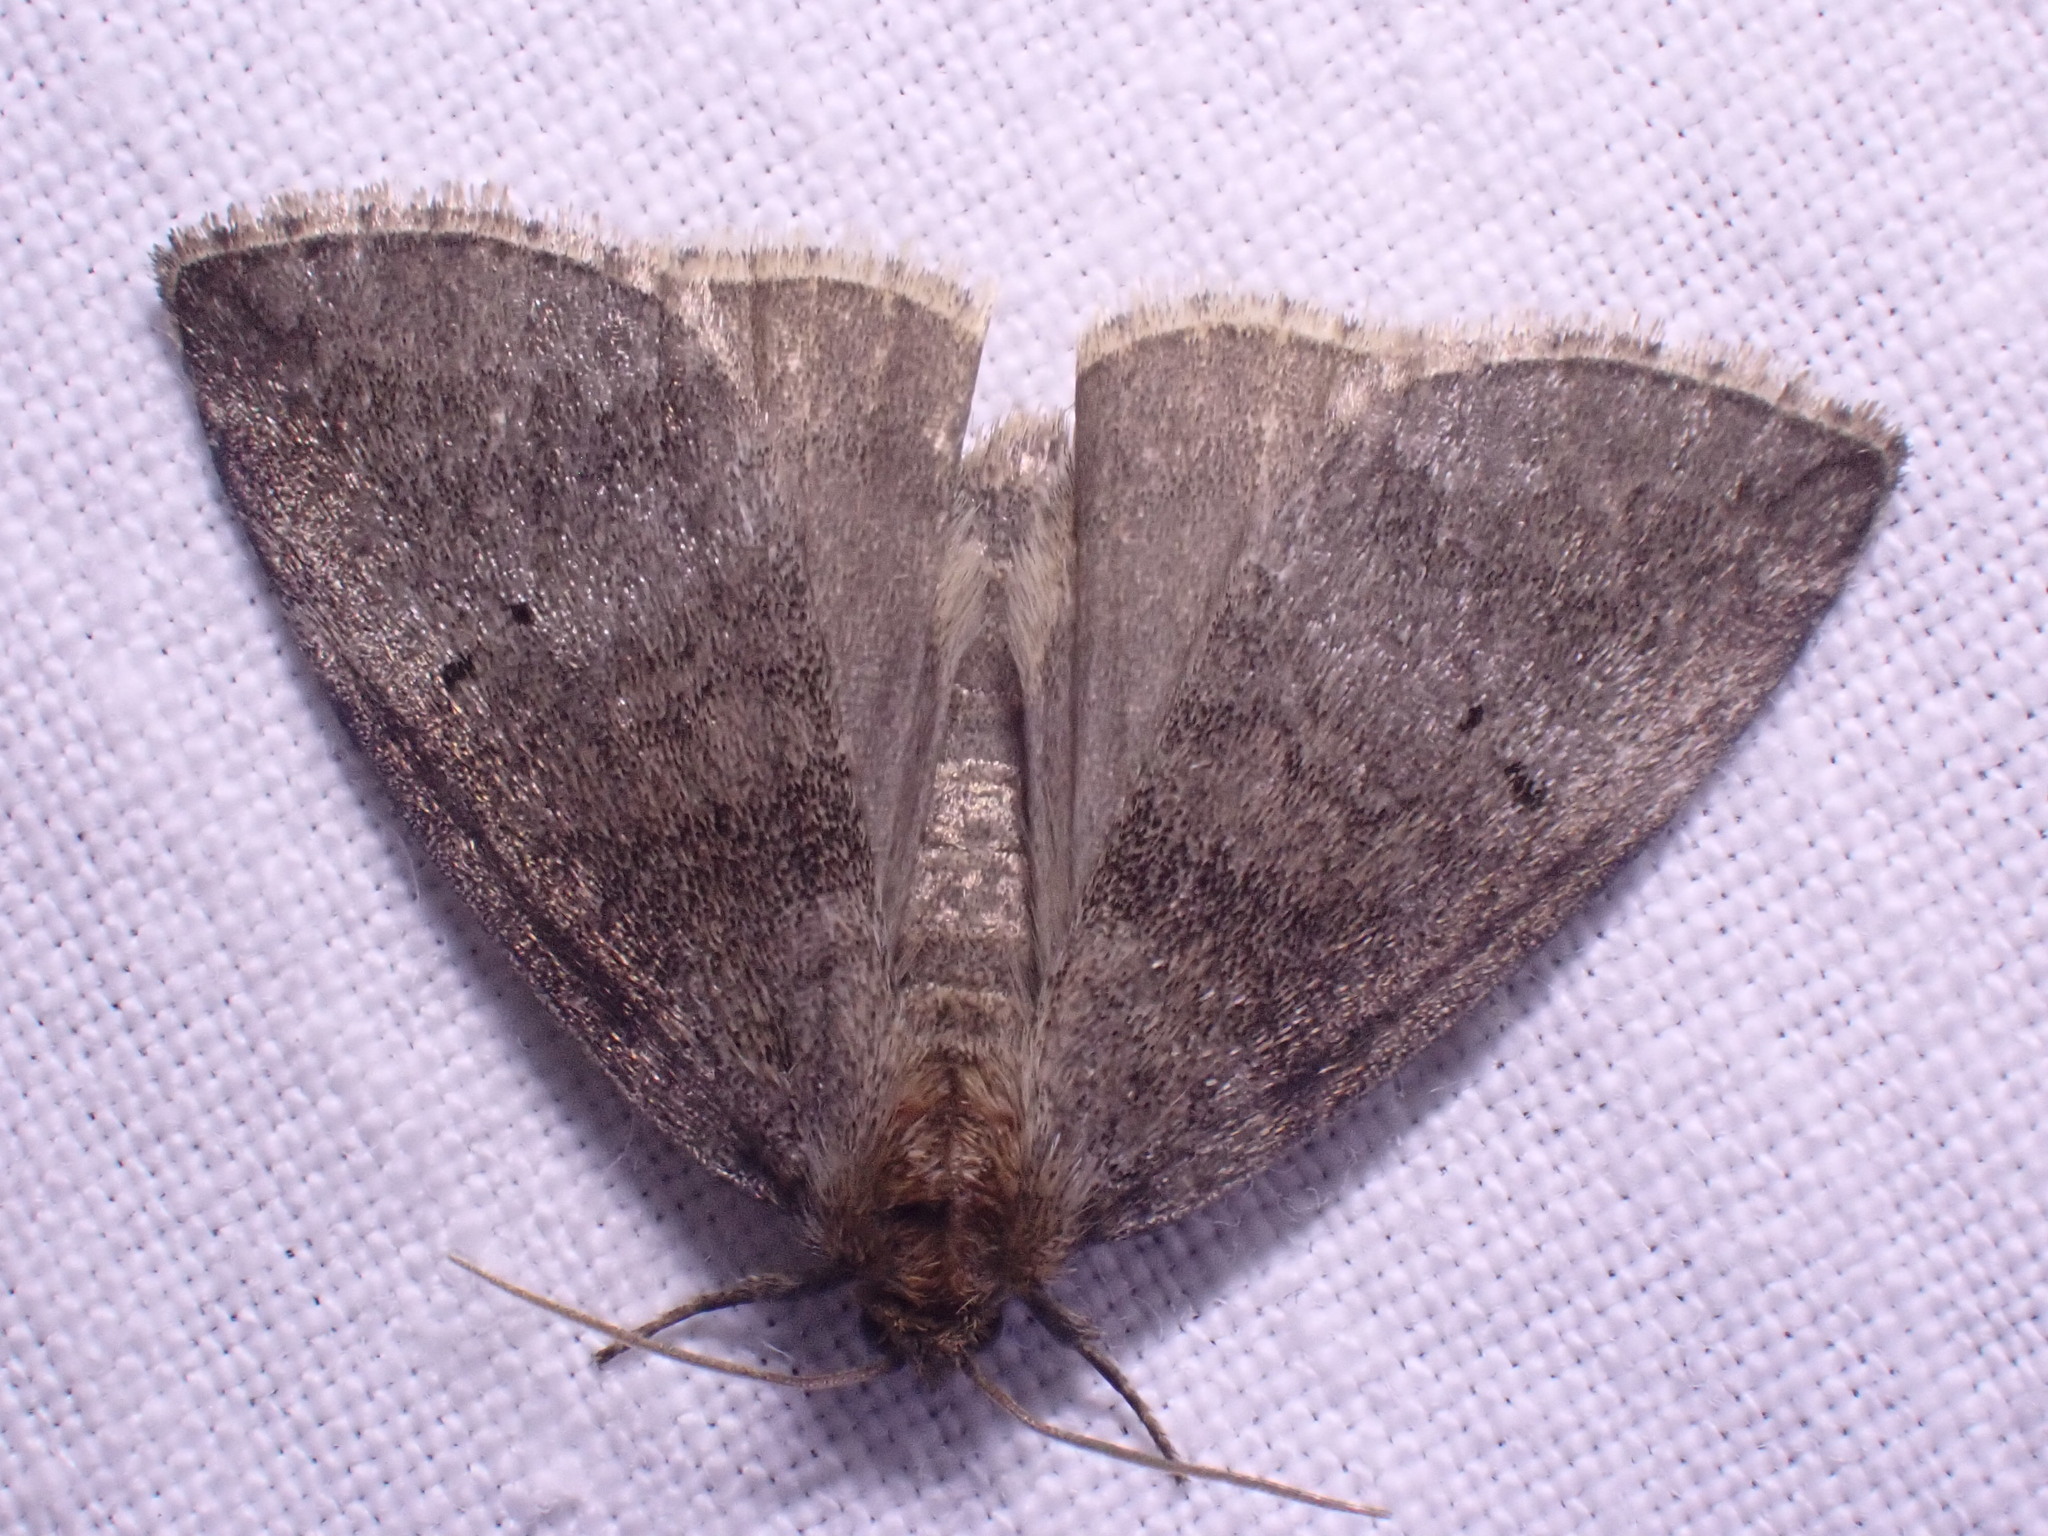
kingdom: Animalia
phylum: Arthropoda
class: Insecta
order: Lepidoptera
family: Drepanidae
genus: Ochropacha
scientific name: Ochropacha duplaris
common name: Common lutestring
